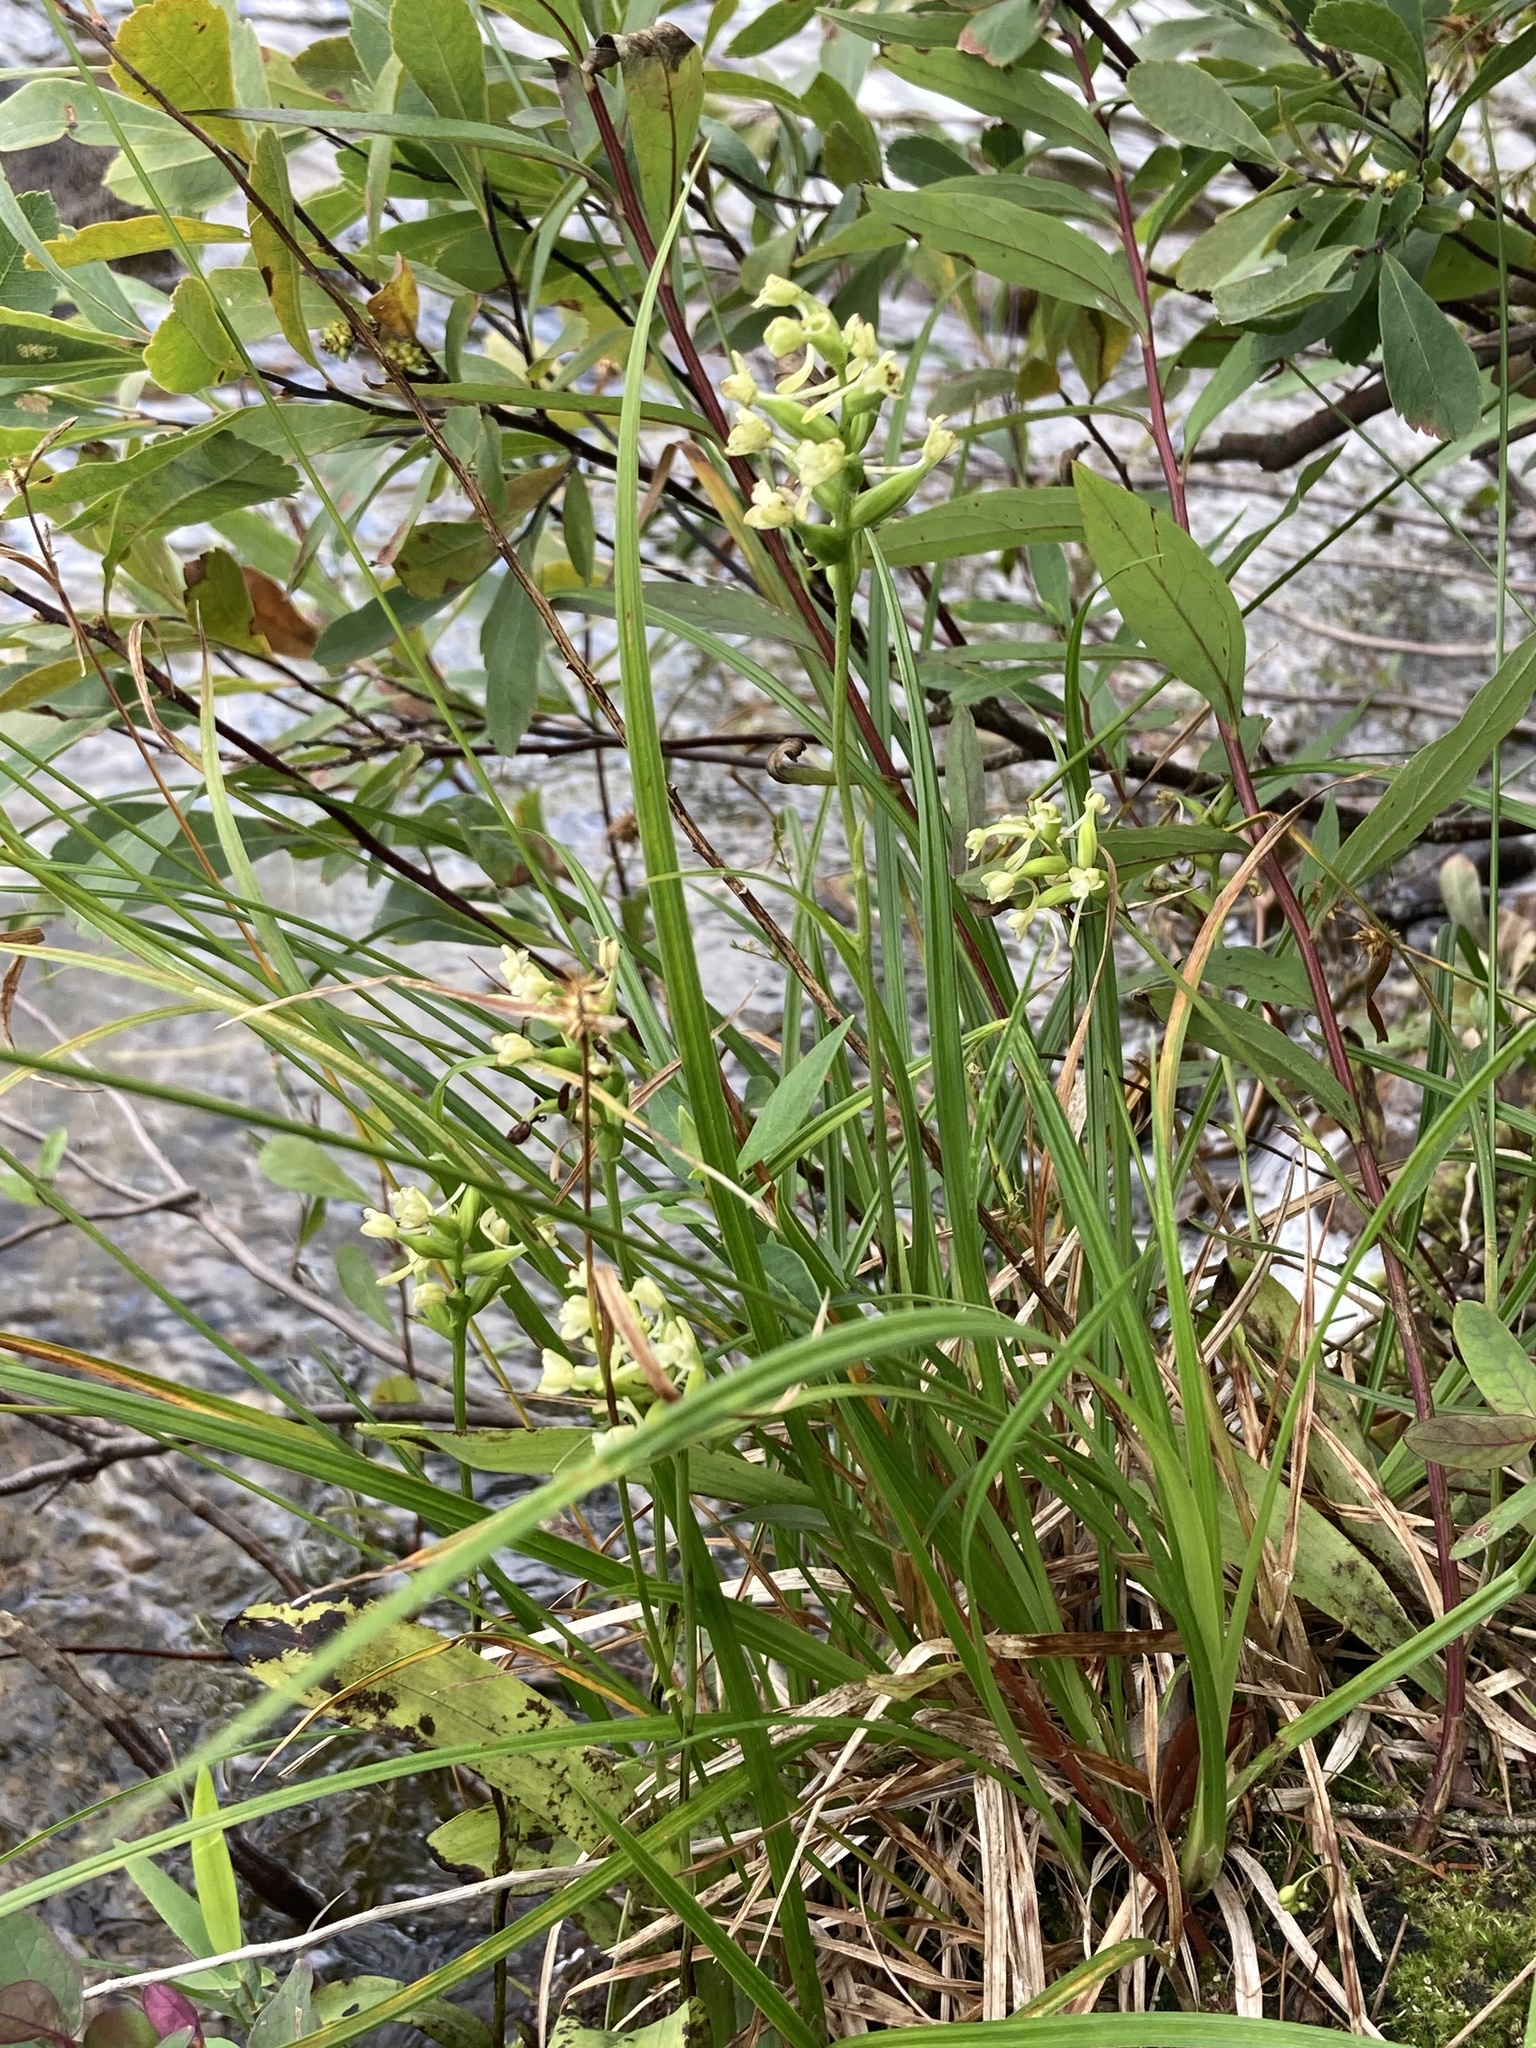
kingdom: Plantae
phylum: Tracheophyta
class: Liliopsida
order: Asparagales
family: Orchidaceae
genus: Platanthera
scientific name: Platanthera clavellata
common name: Club-spur orchid
